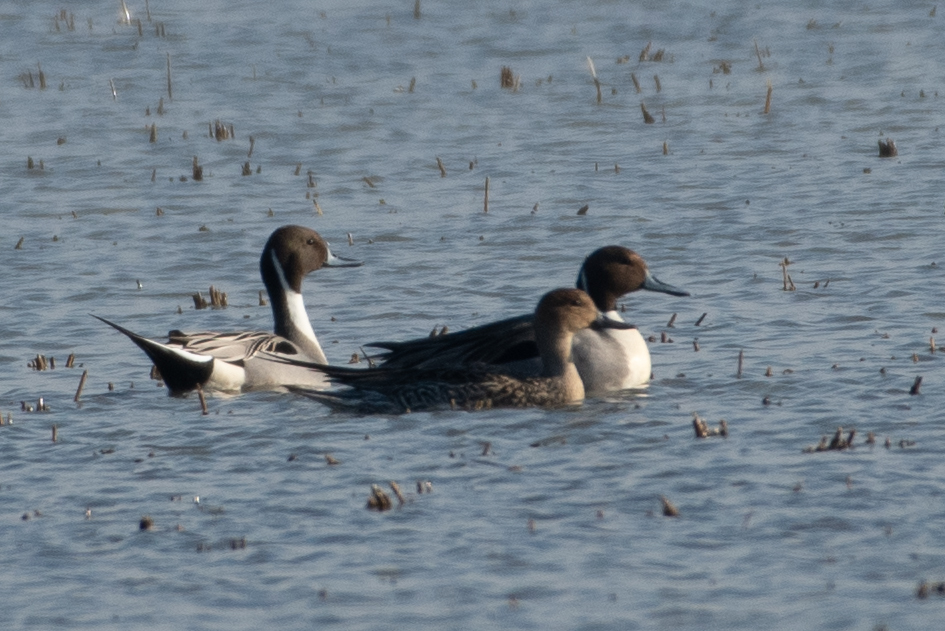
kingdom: Animalia
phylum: Chordata
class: Aves
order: Anseriformes
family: Anatidae
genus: Anas
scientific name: Anas acuta
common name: Northern pintail
